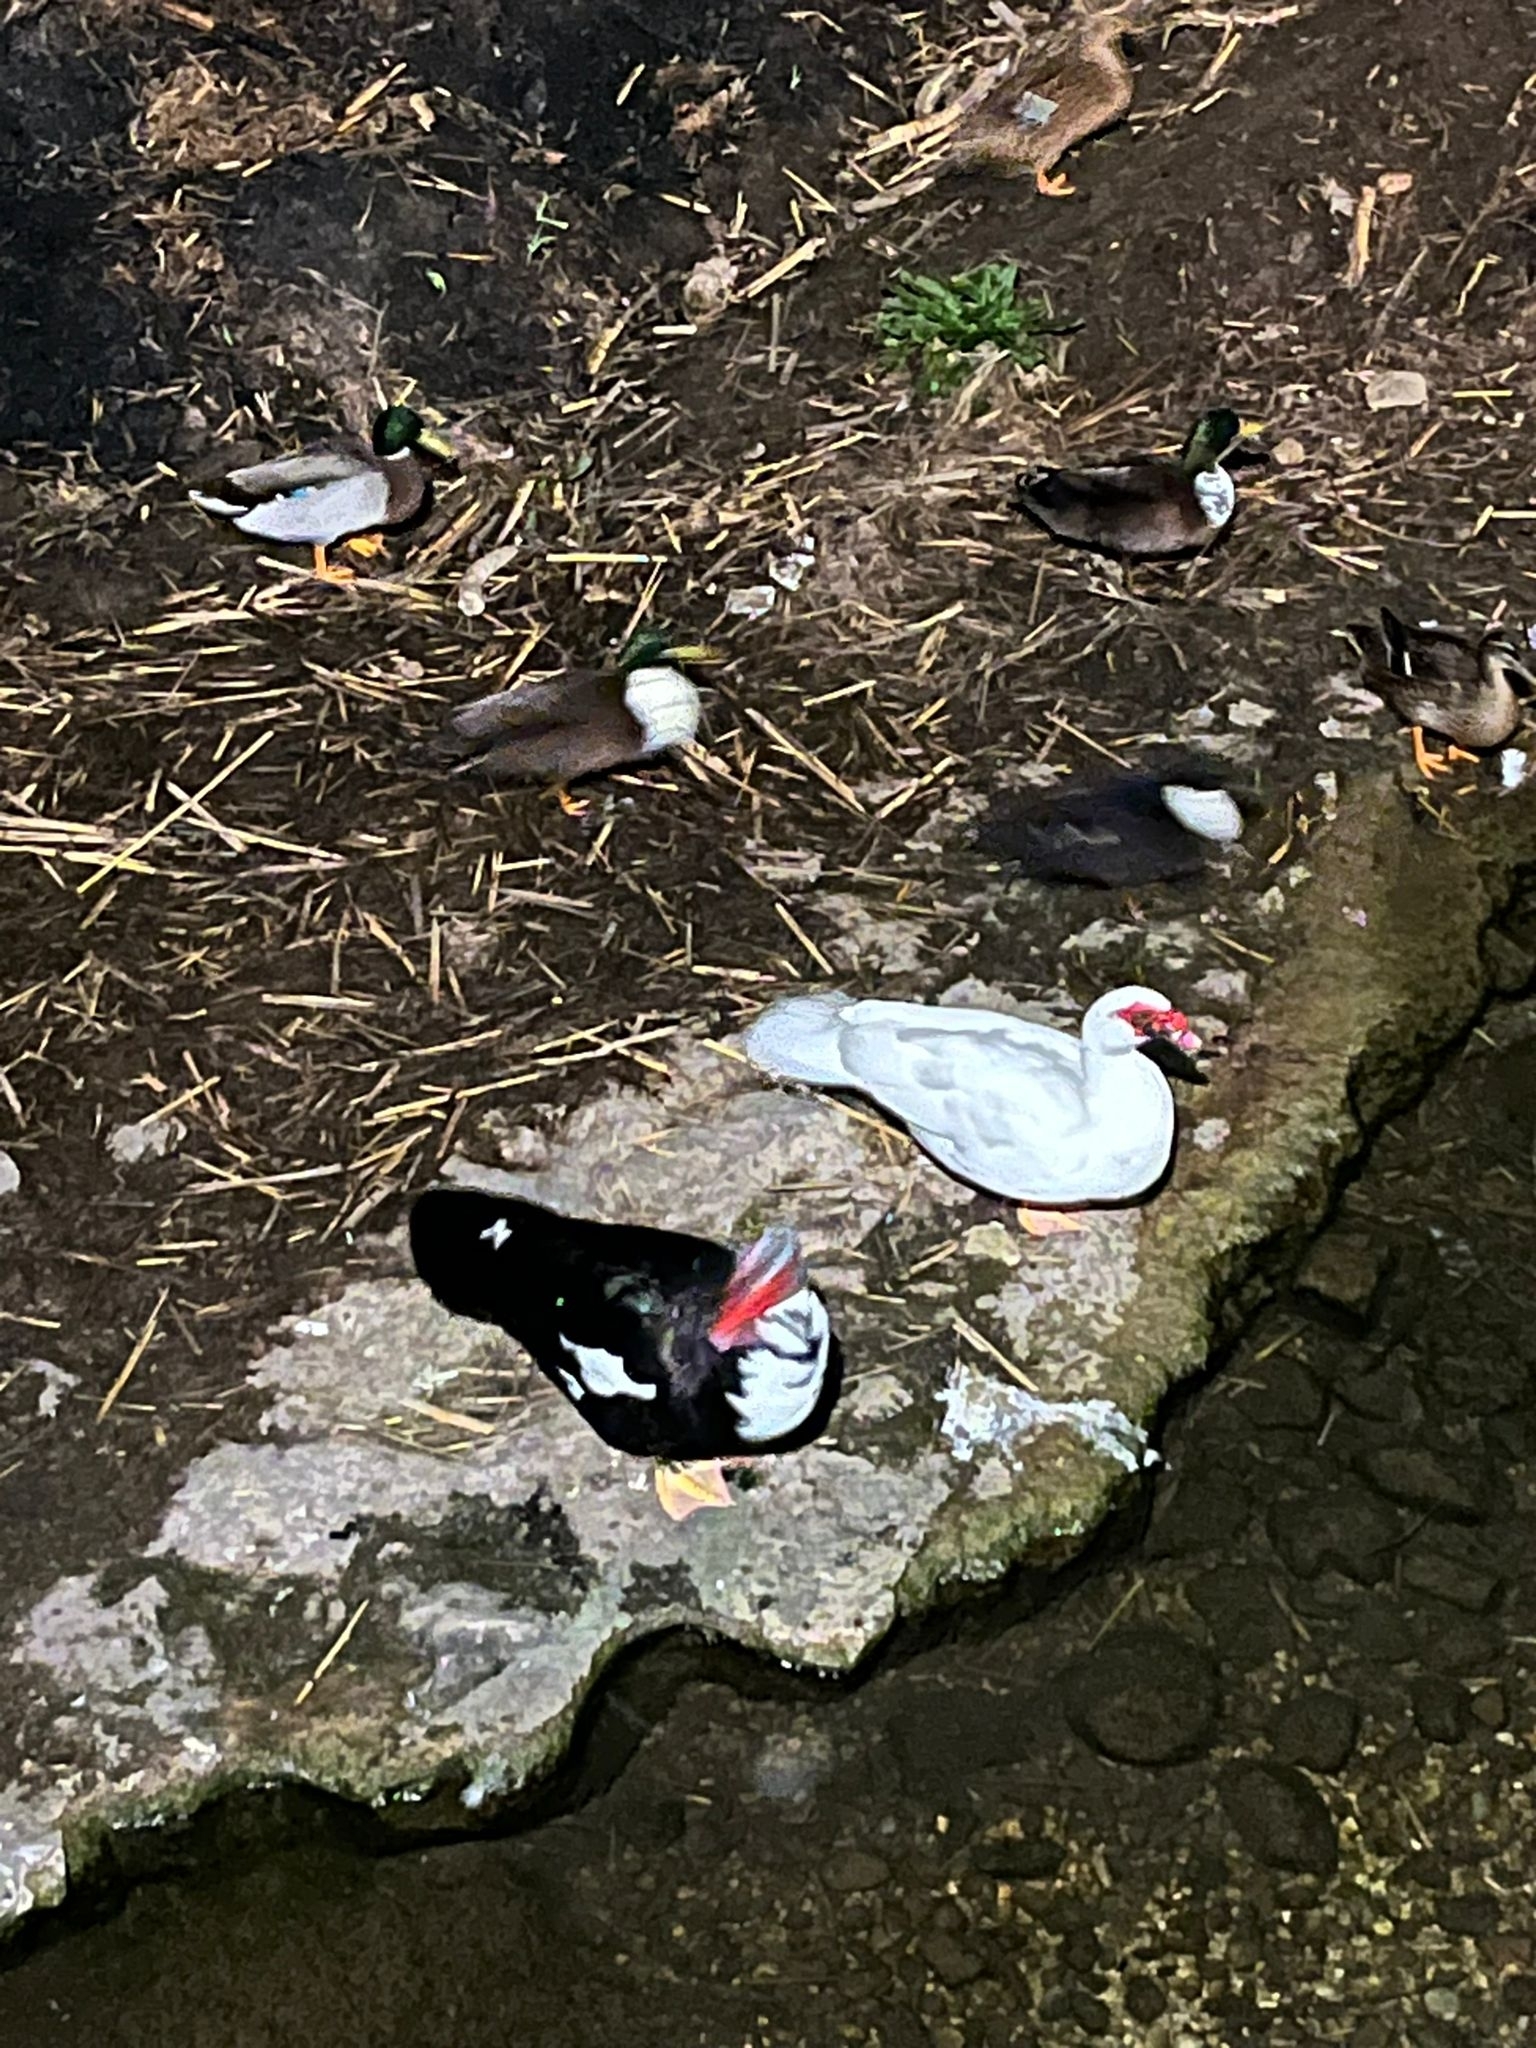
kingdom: Animalia
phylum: Chordata
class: Aves
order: Anseriformes
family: Anatidae
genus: Cairina
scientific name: Cairina moschata
